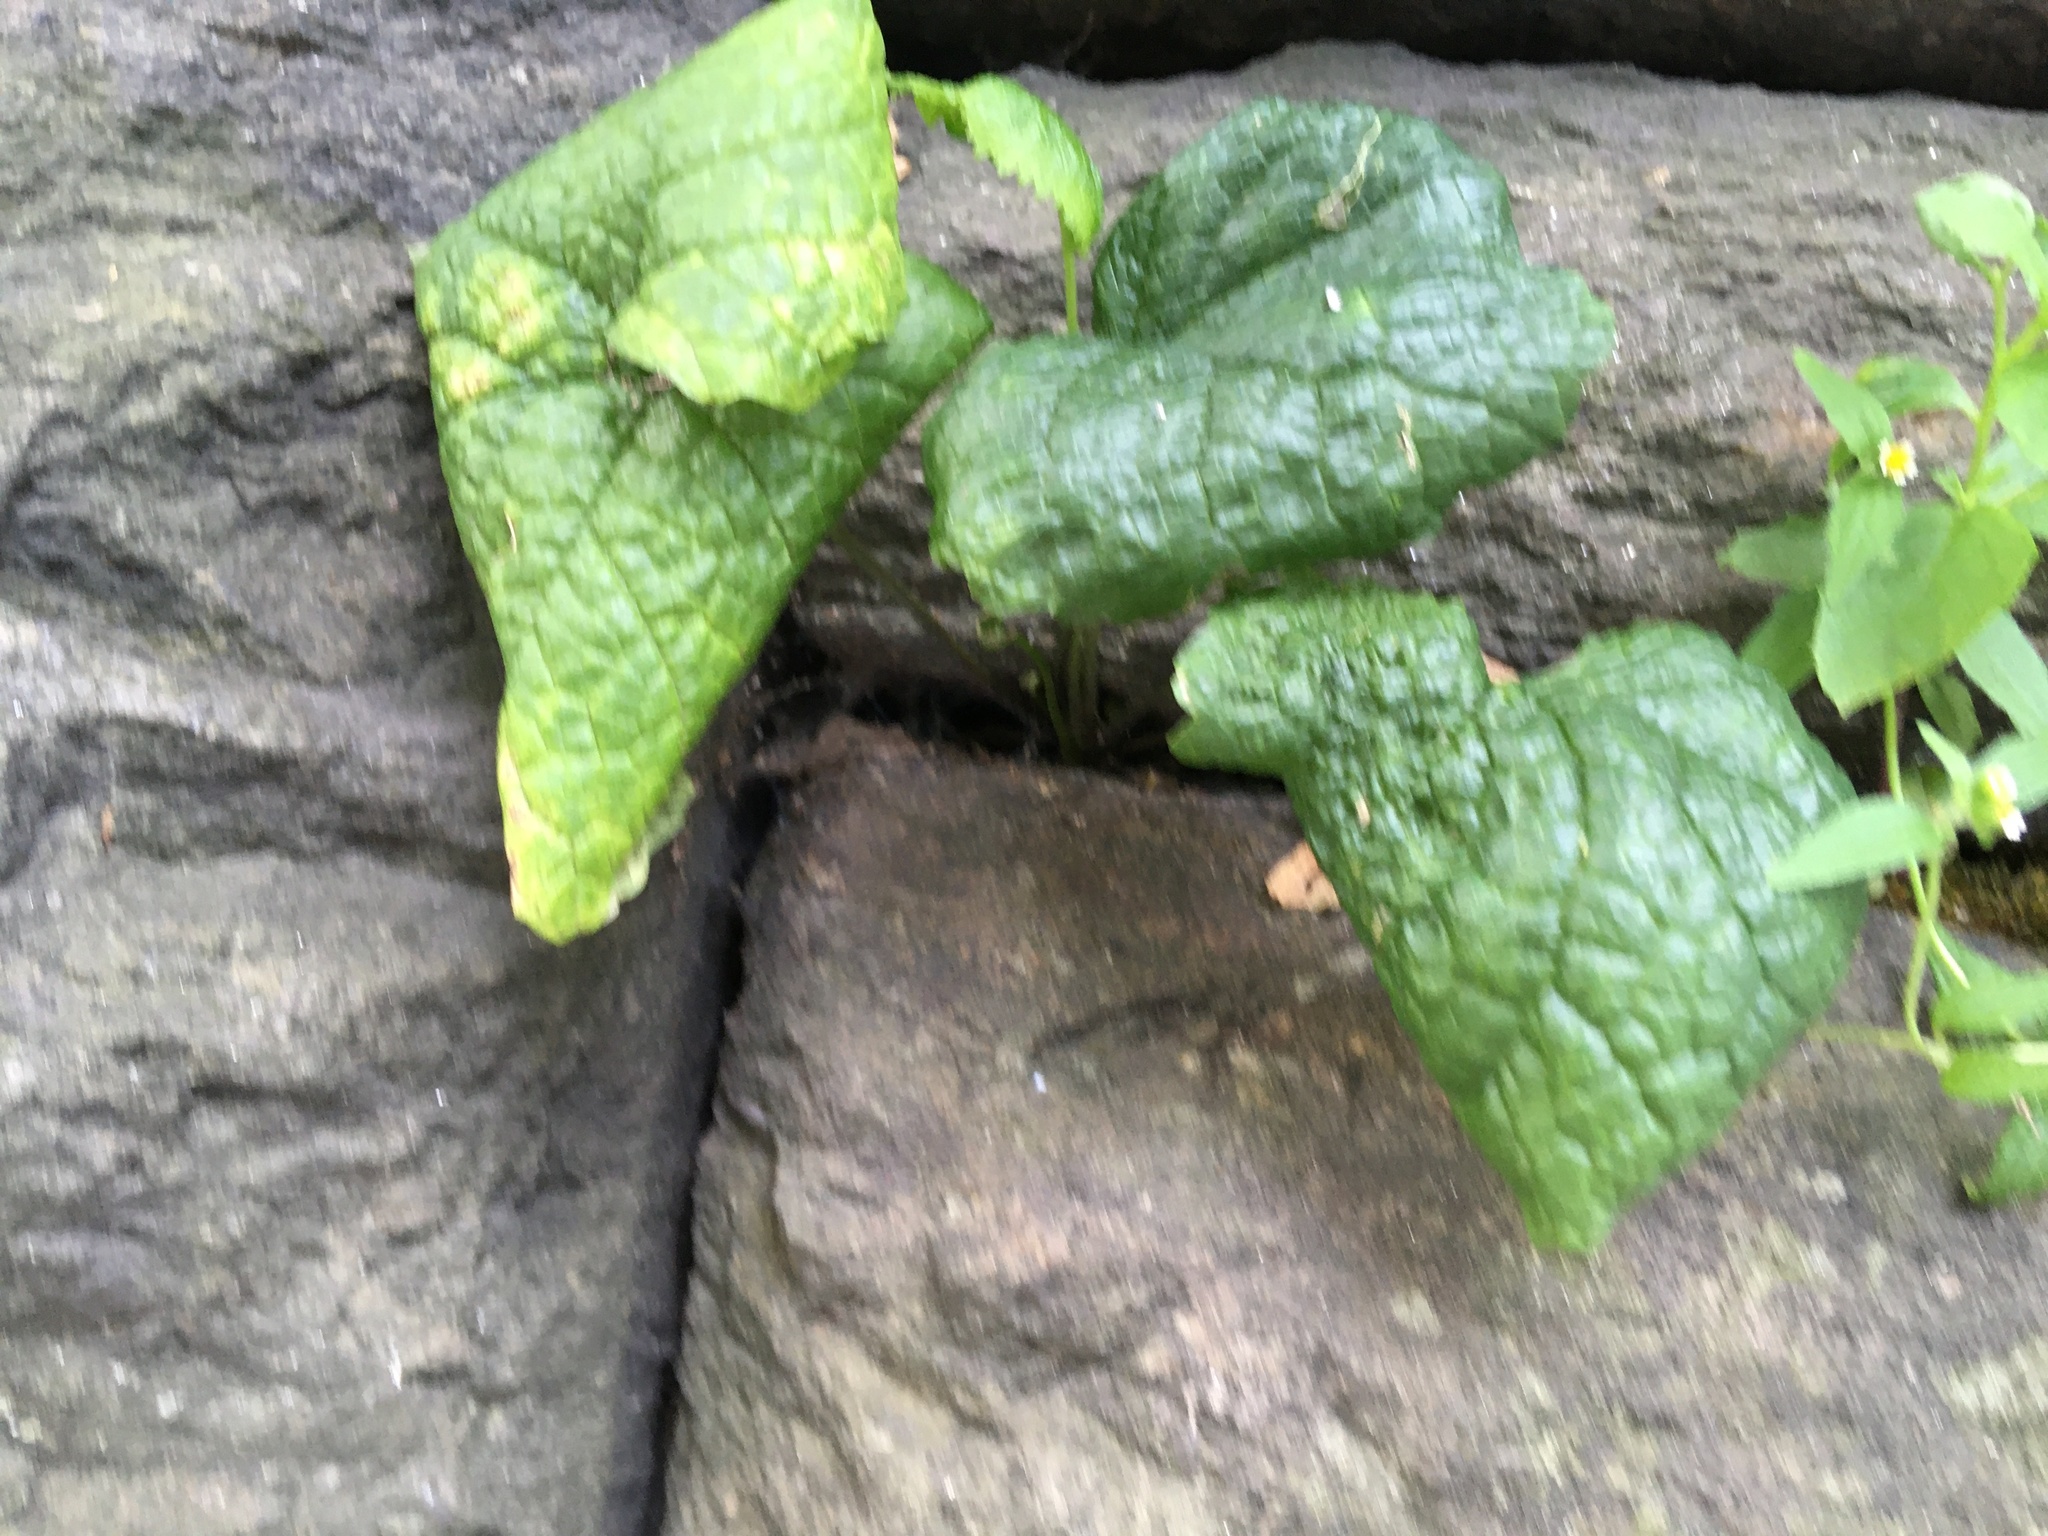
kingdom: Plantae
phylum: Tracheophyta
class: Magnoliopsida
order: Brassicales
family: Brassicaceae
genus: Alliaria
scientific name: Alliaria petiolata
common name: Garlic mustard
